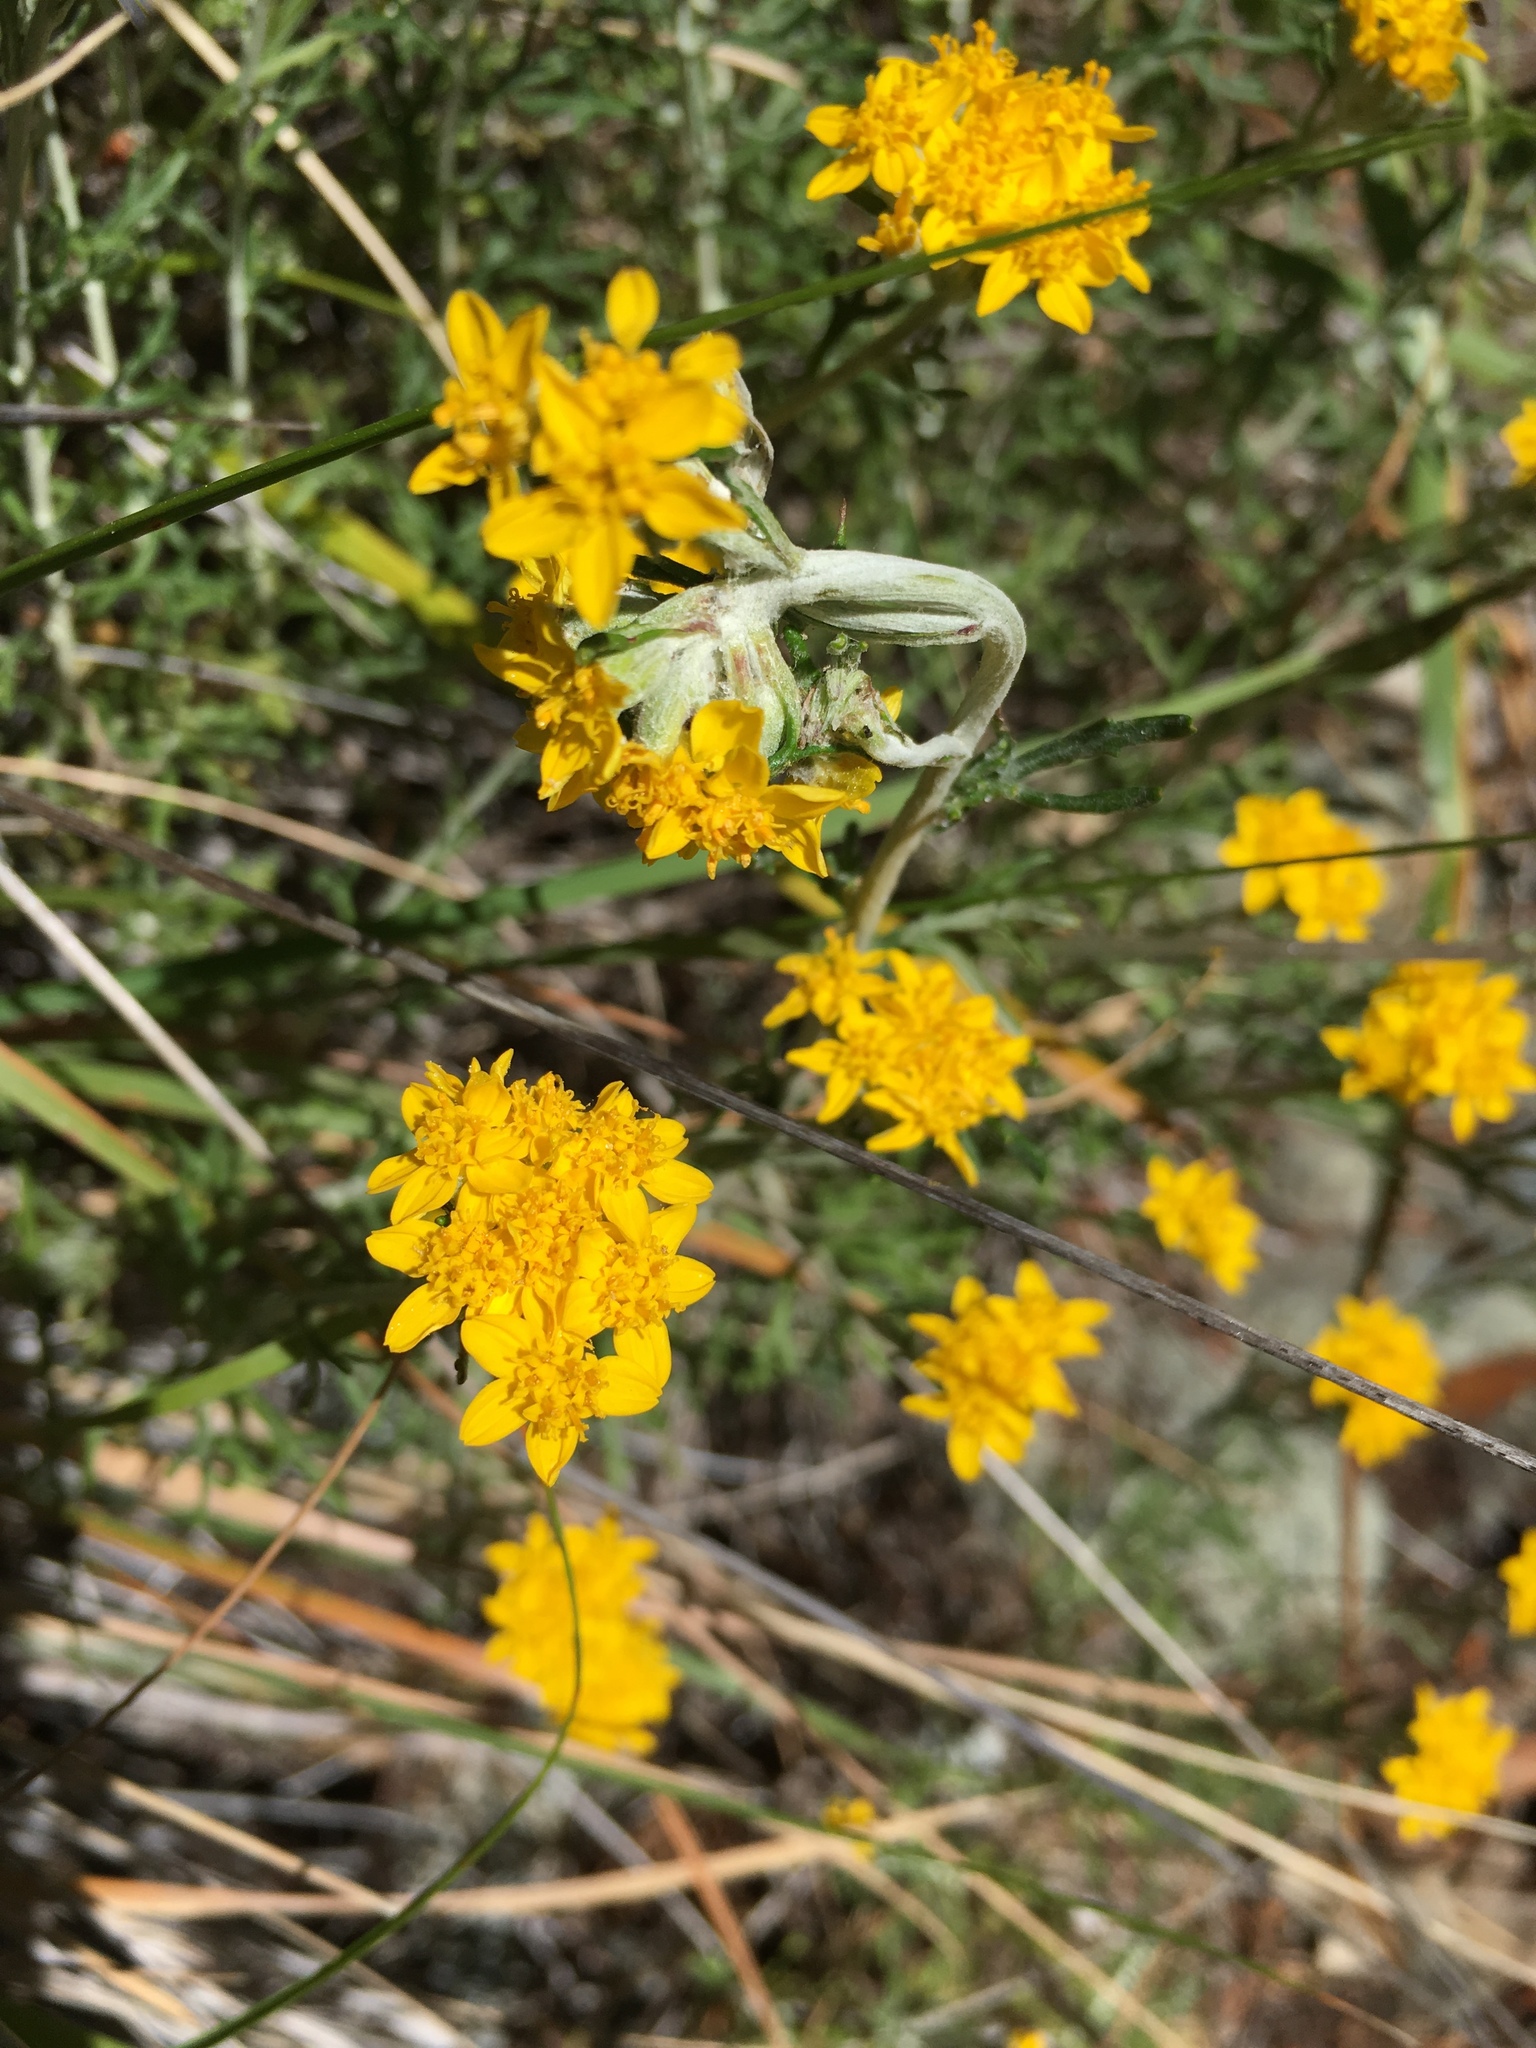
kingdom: Plantae
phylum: Tracheophyta
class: Magnoliopsida
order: Asterales
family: Asteraceae
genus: Eriophyllum
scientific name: Eriophyllum confertiflorum
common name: Golden-yarrow
